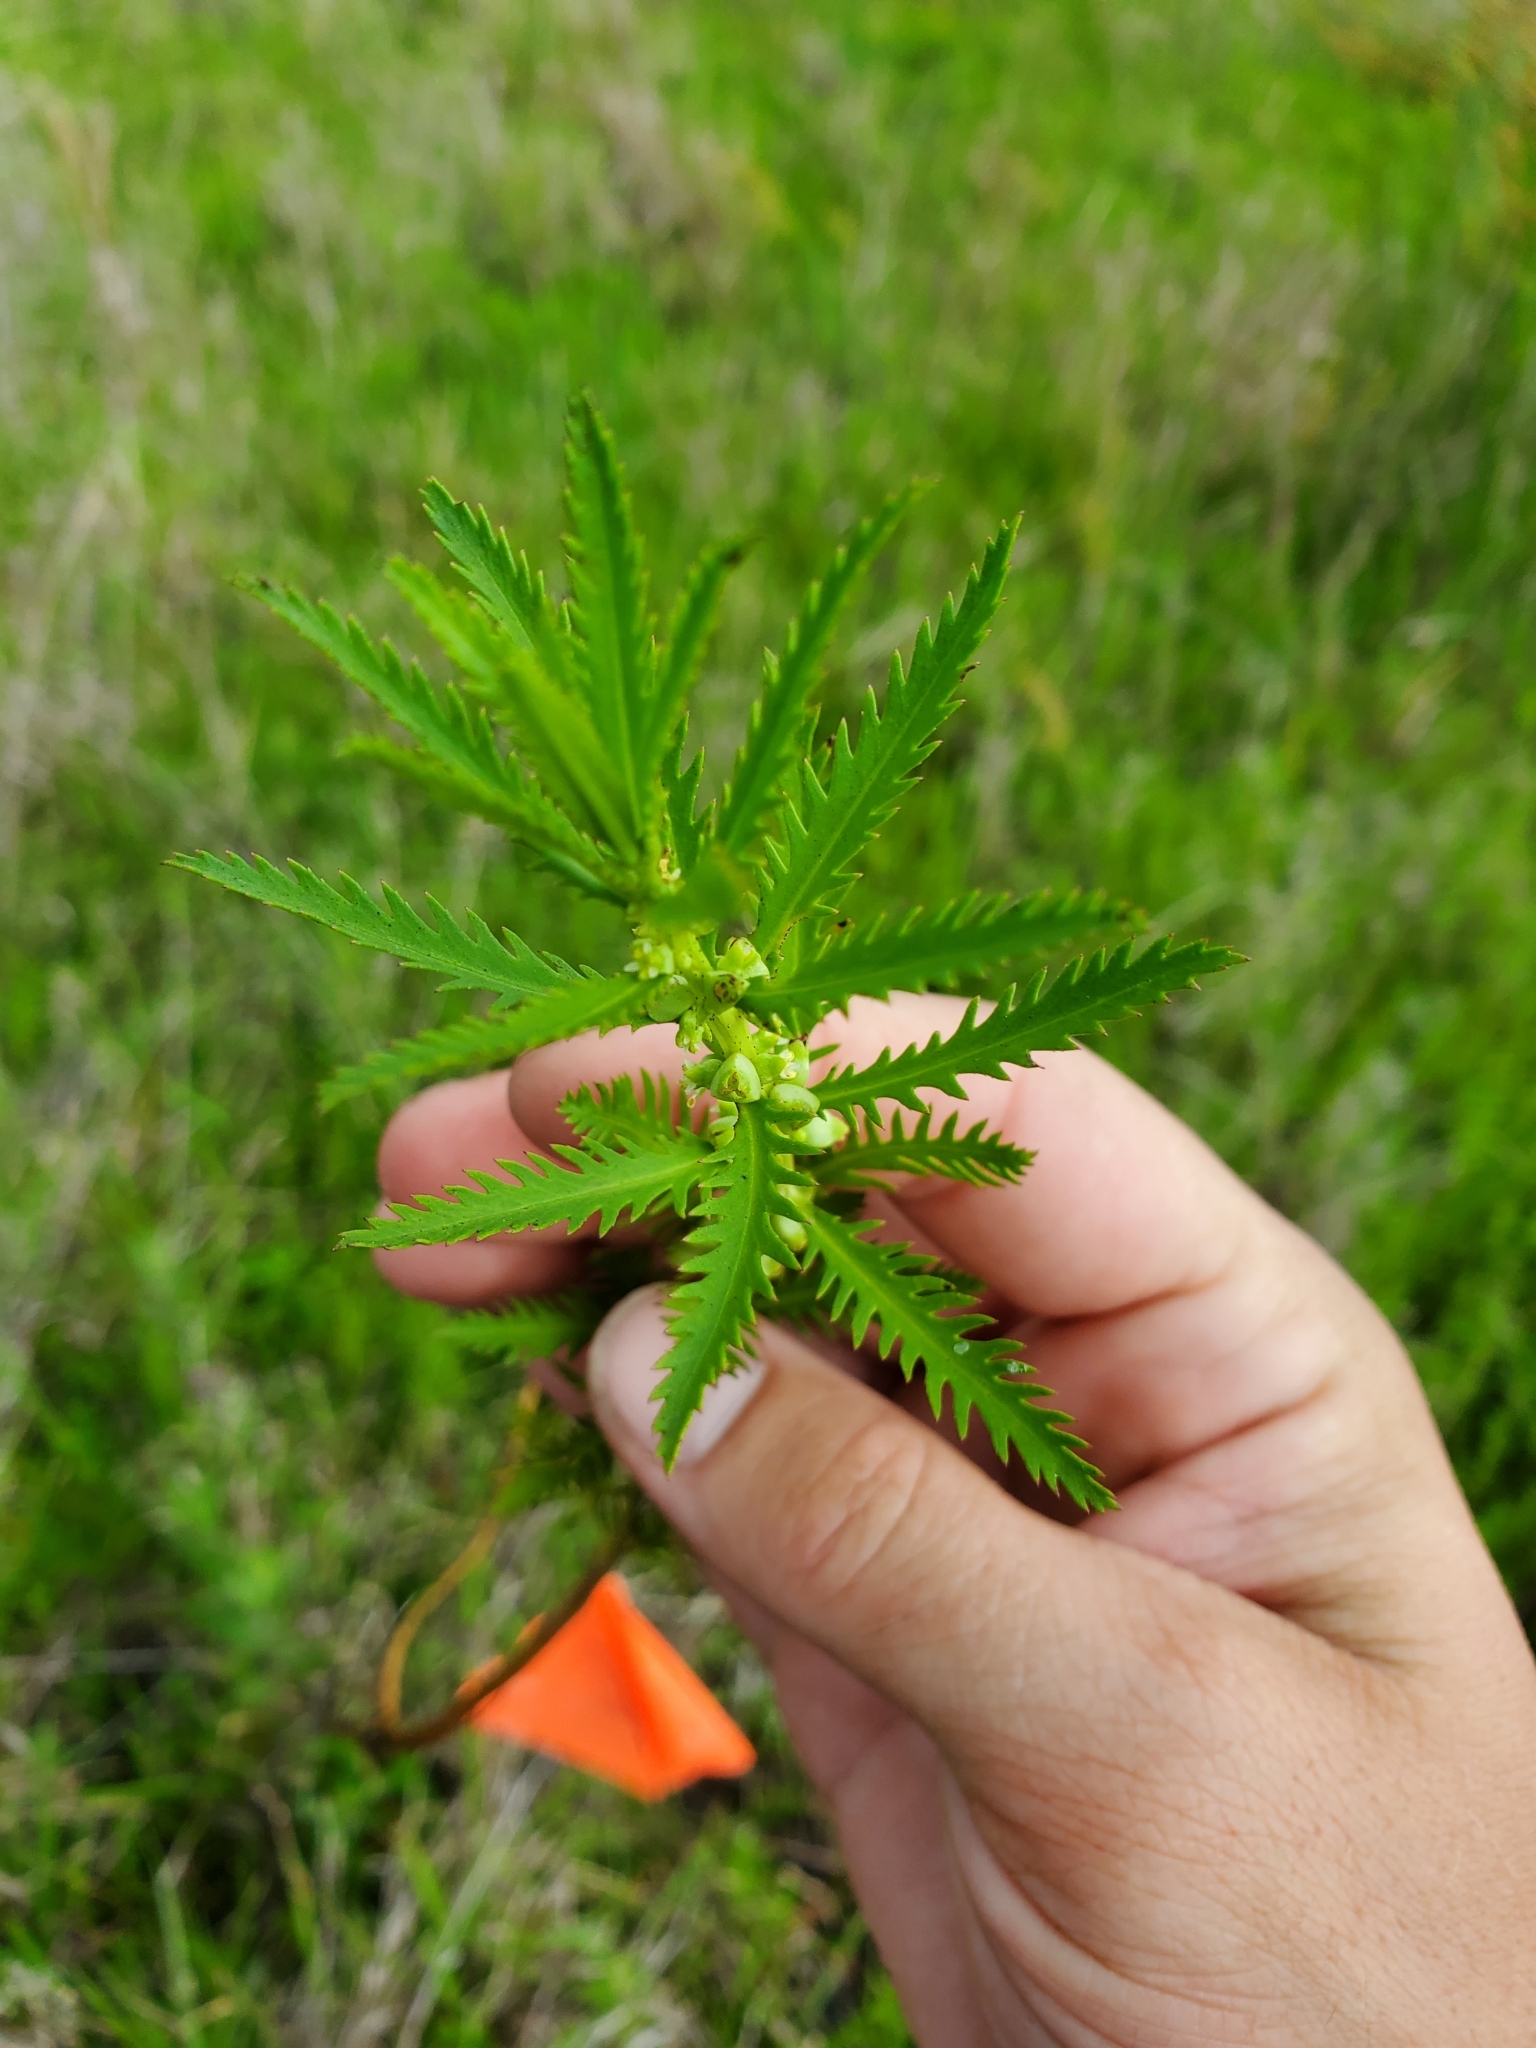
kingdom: Plantae
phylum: Tracheophyta
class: Magnoliopsida
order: Saxifragales
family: Haloragaceae
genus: Proserpinaca
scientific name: Proserpinaca pectinata
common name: Comb-leaved mermaidweed
